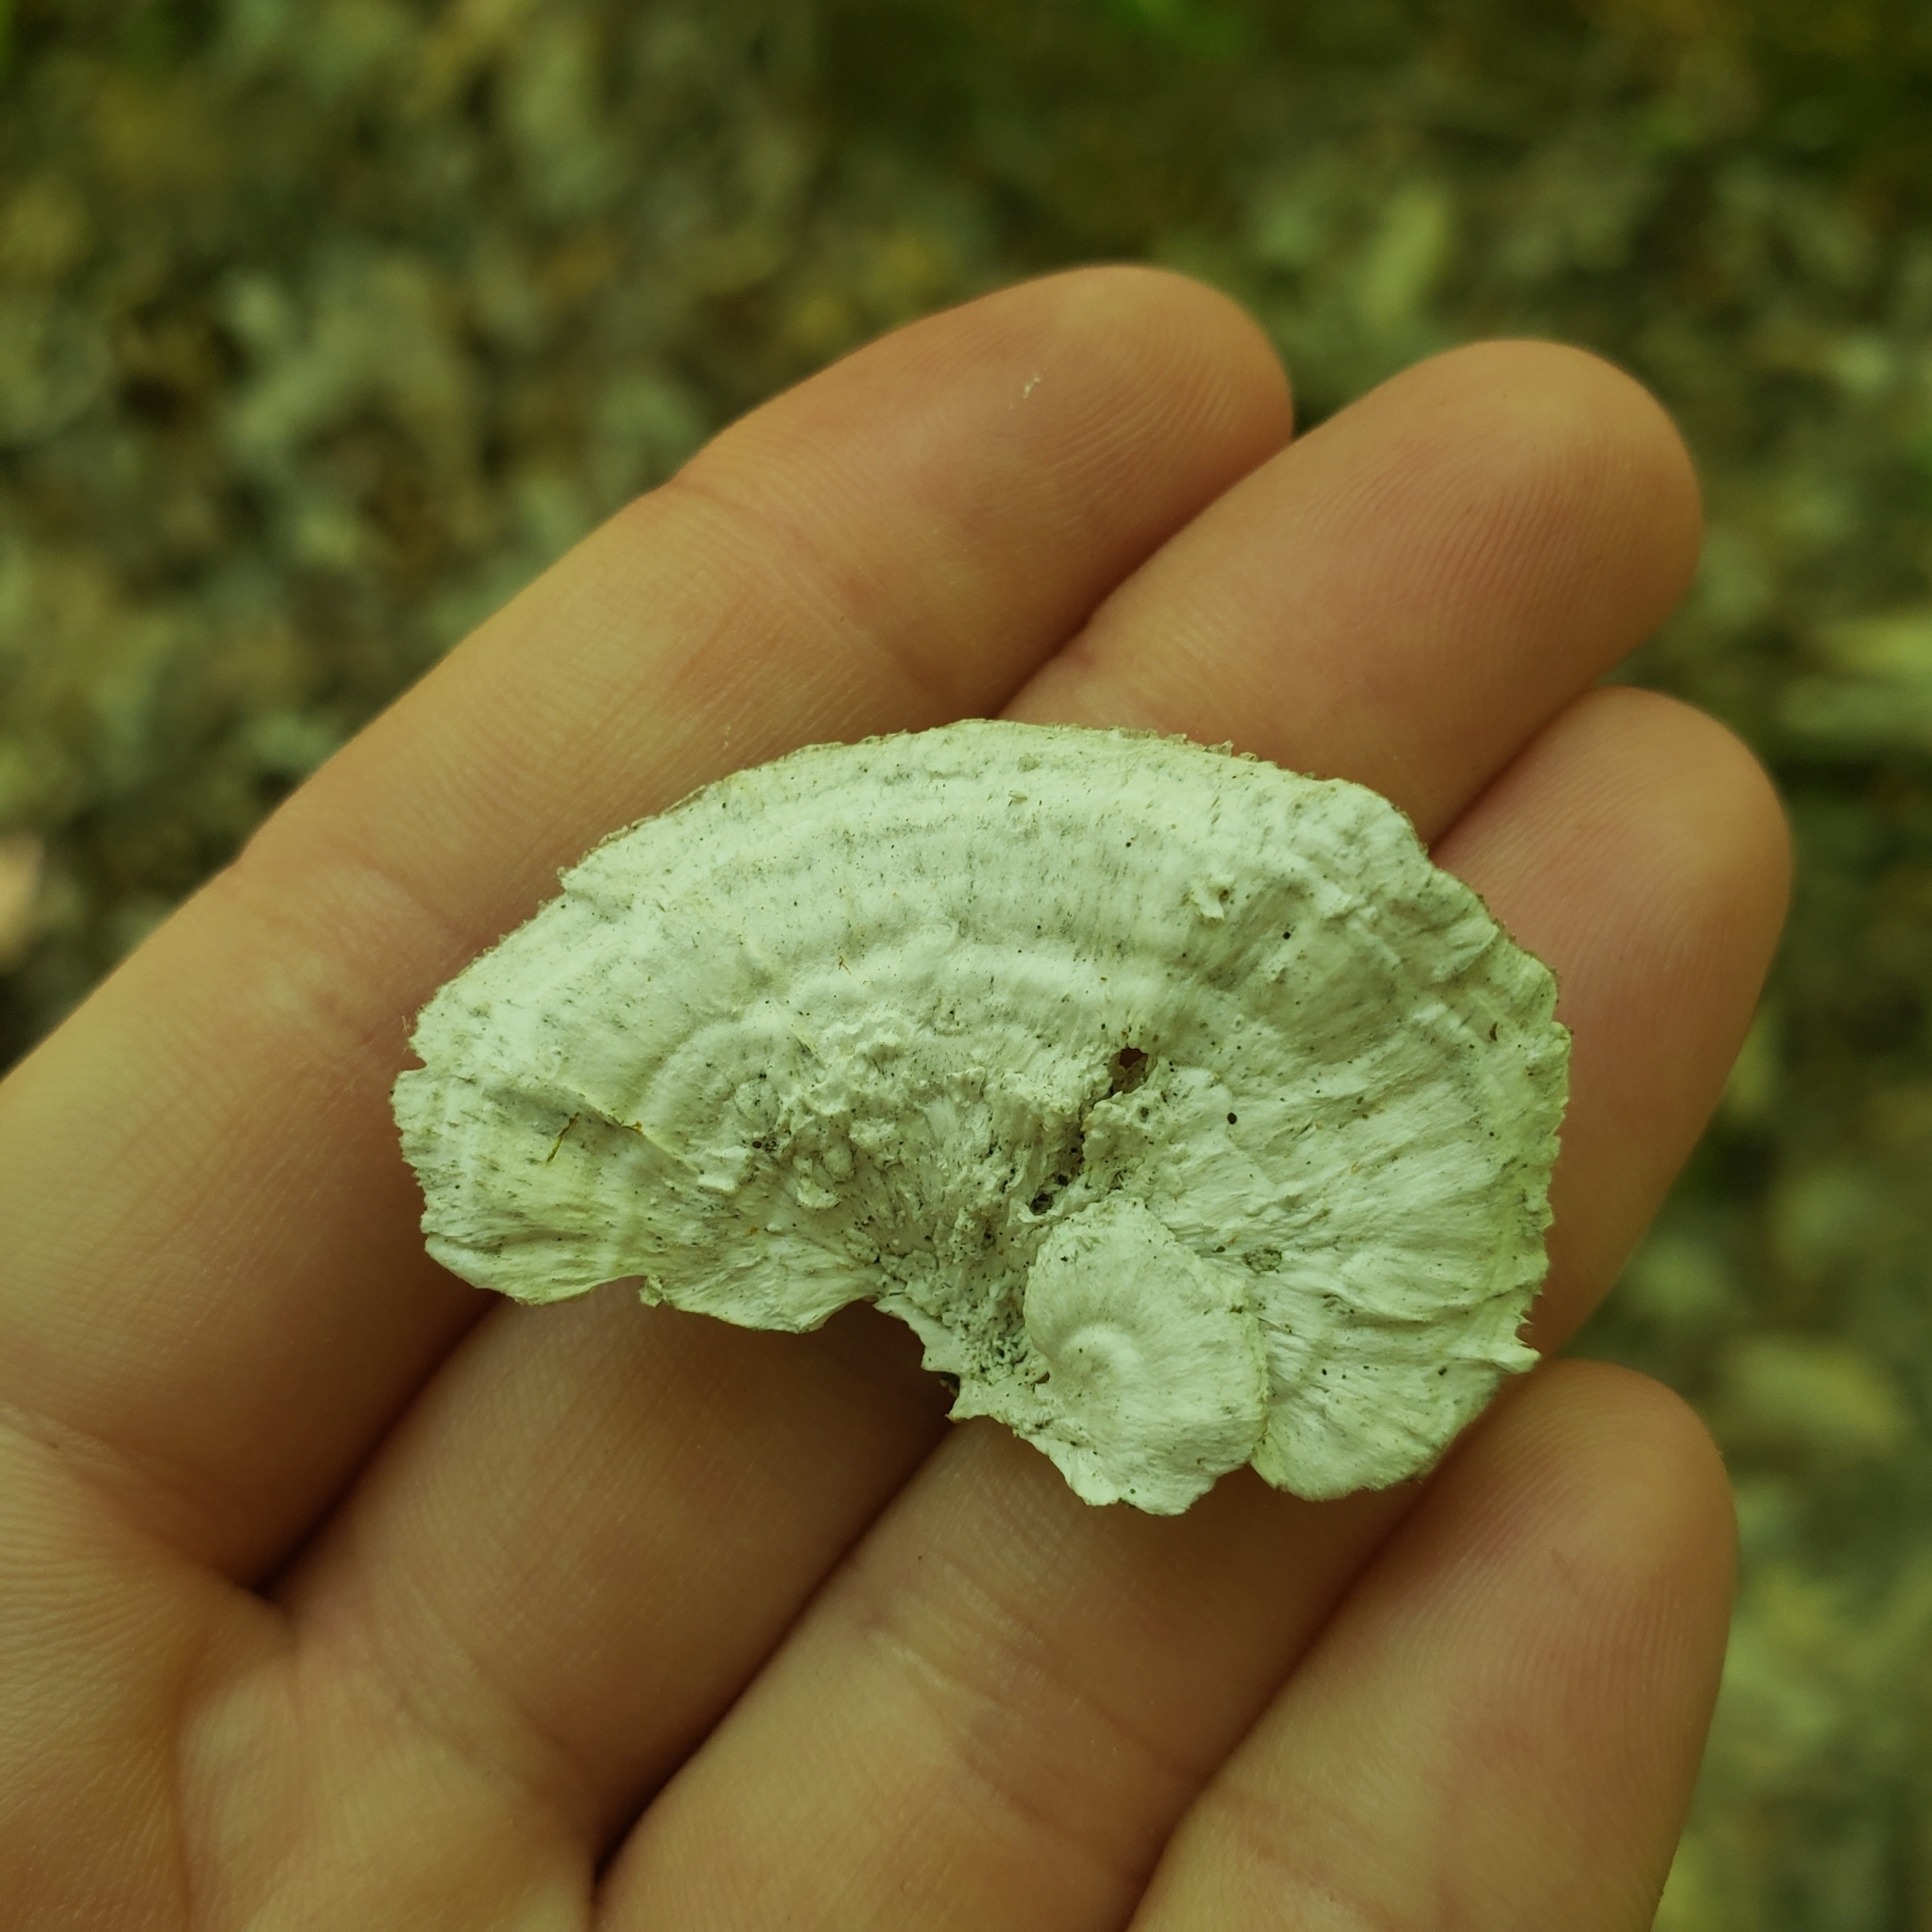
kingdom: Fungi
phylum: Basidiomycota
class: Agaricomycetes
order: Polyporales
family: Polyporaceae
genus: Poronidulus
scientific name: Poronidulus conchifer
